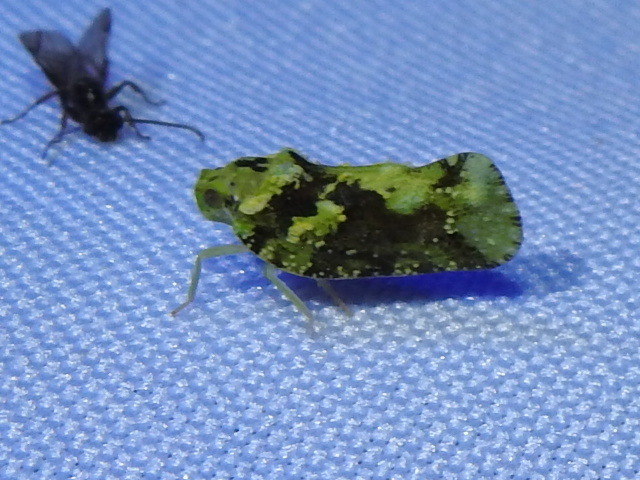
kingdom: Animalia
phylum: Arthropoda
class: Insecta
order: Hemiptera
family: Flatidae
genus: Deocerus
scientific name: Deocerus nietoi
